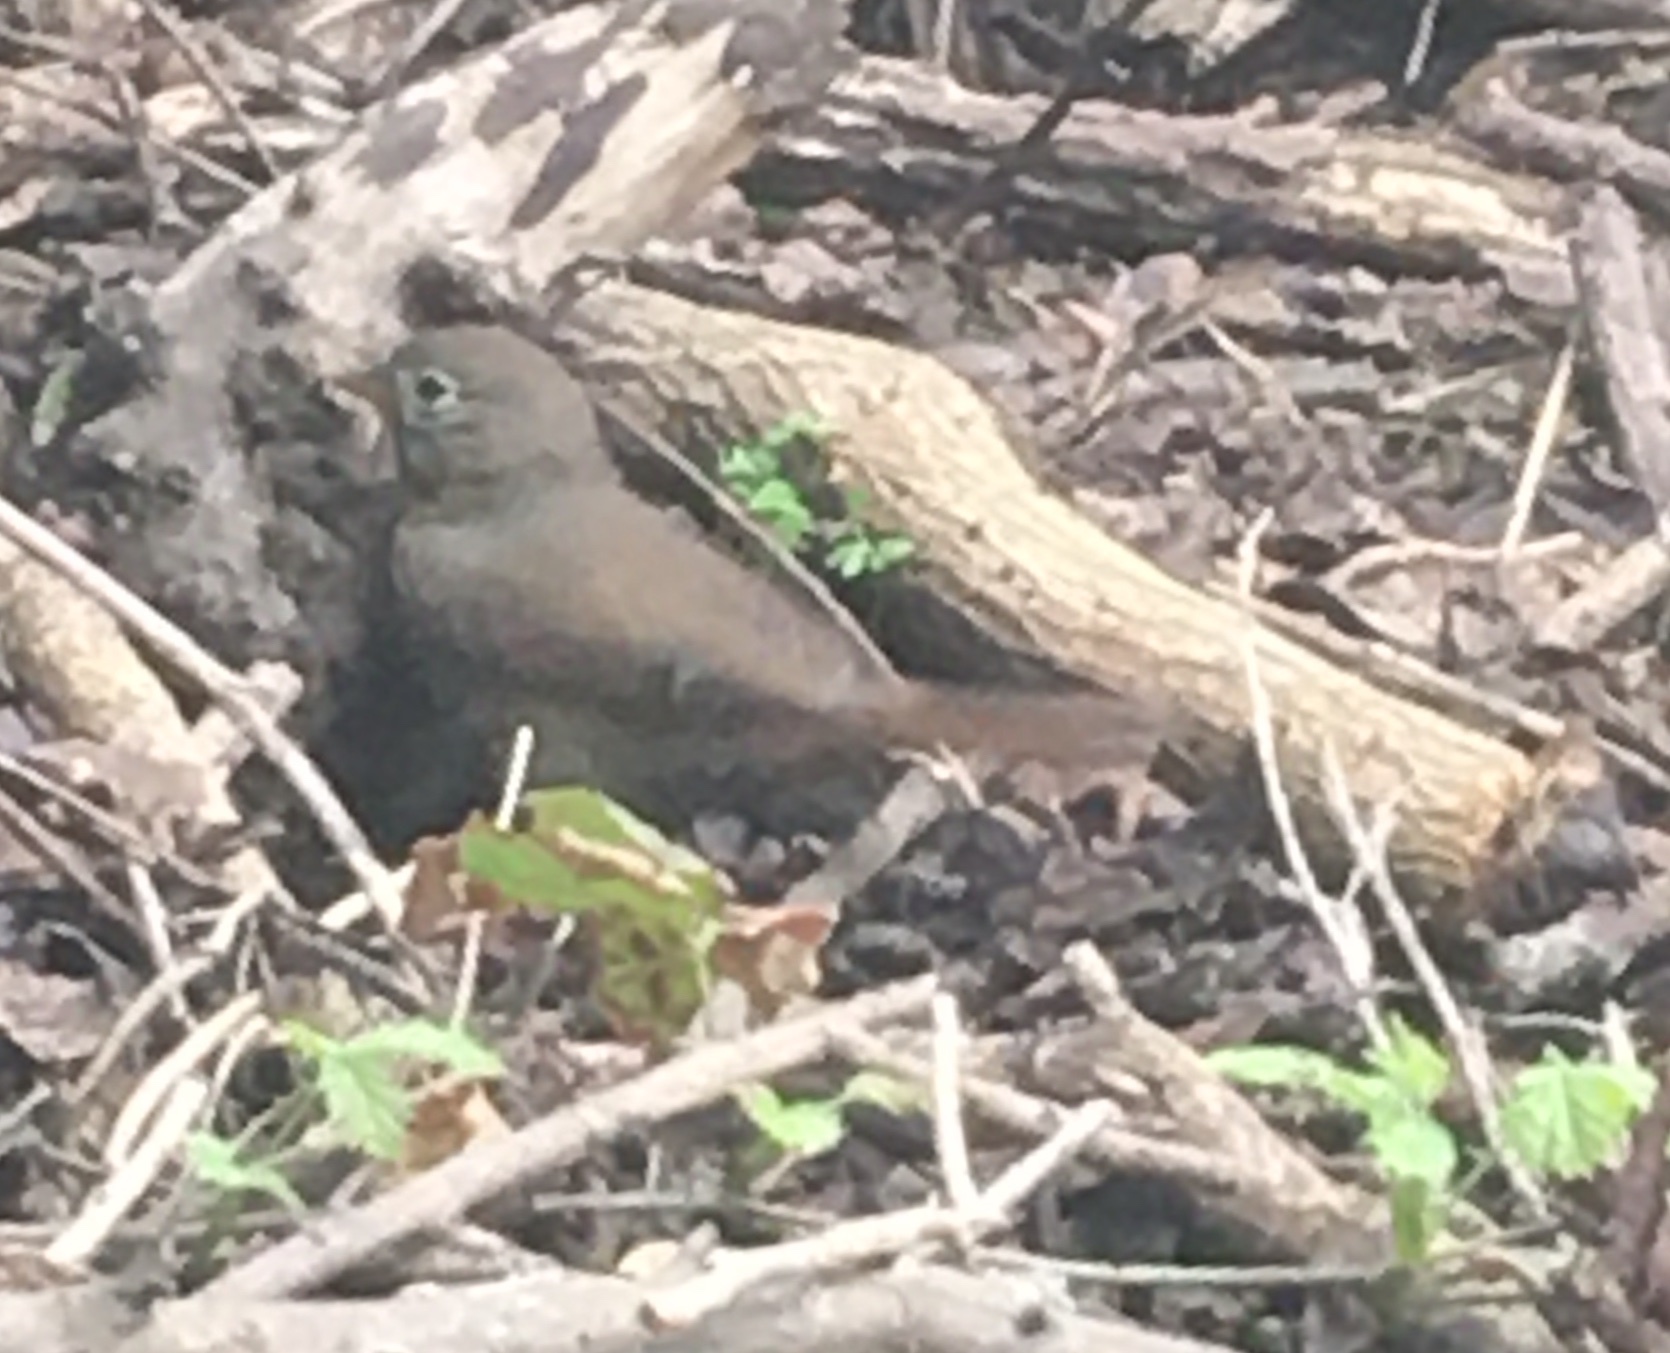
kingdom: Animalia
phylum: Chordata
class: Aves
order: Passeriformes
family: Passerellidae
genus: Passerella
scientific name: Passerella iliaca
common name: Fox sparrow
